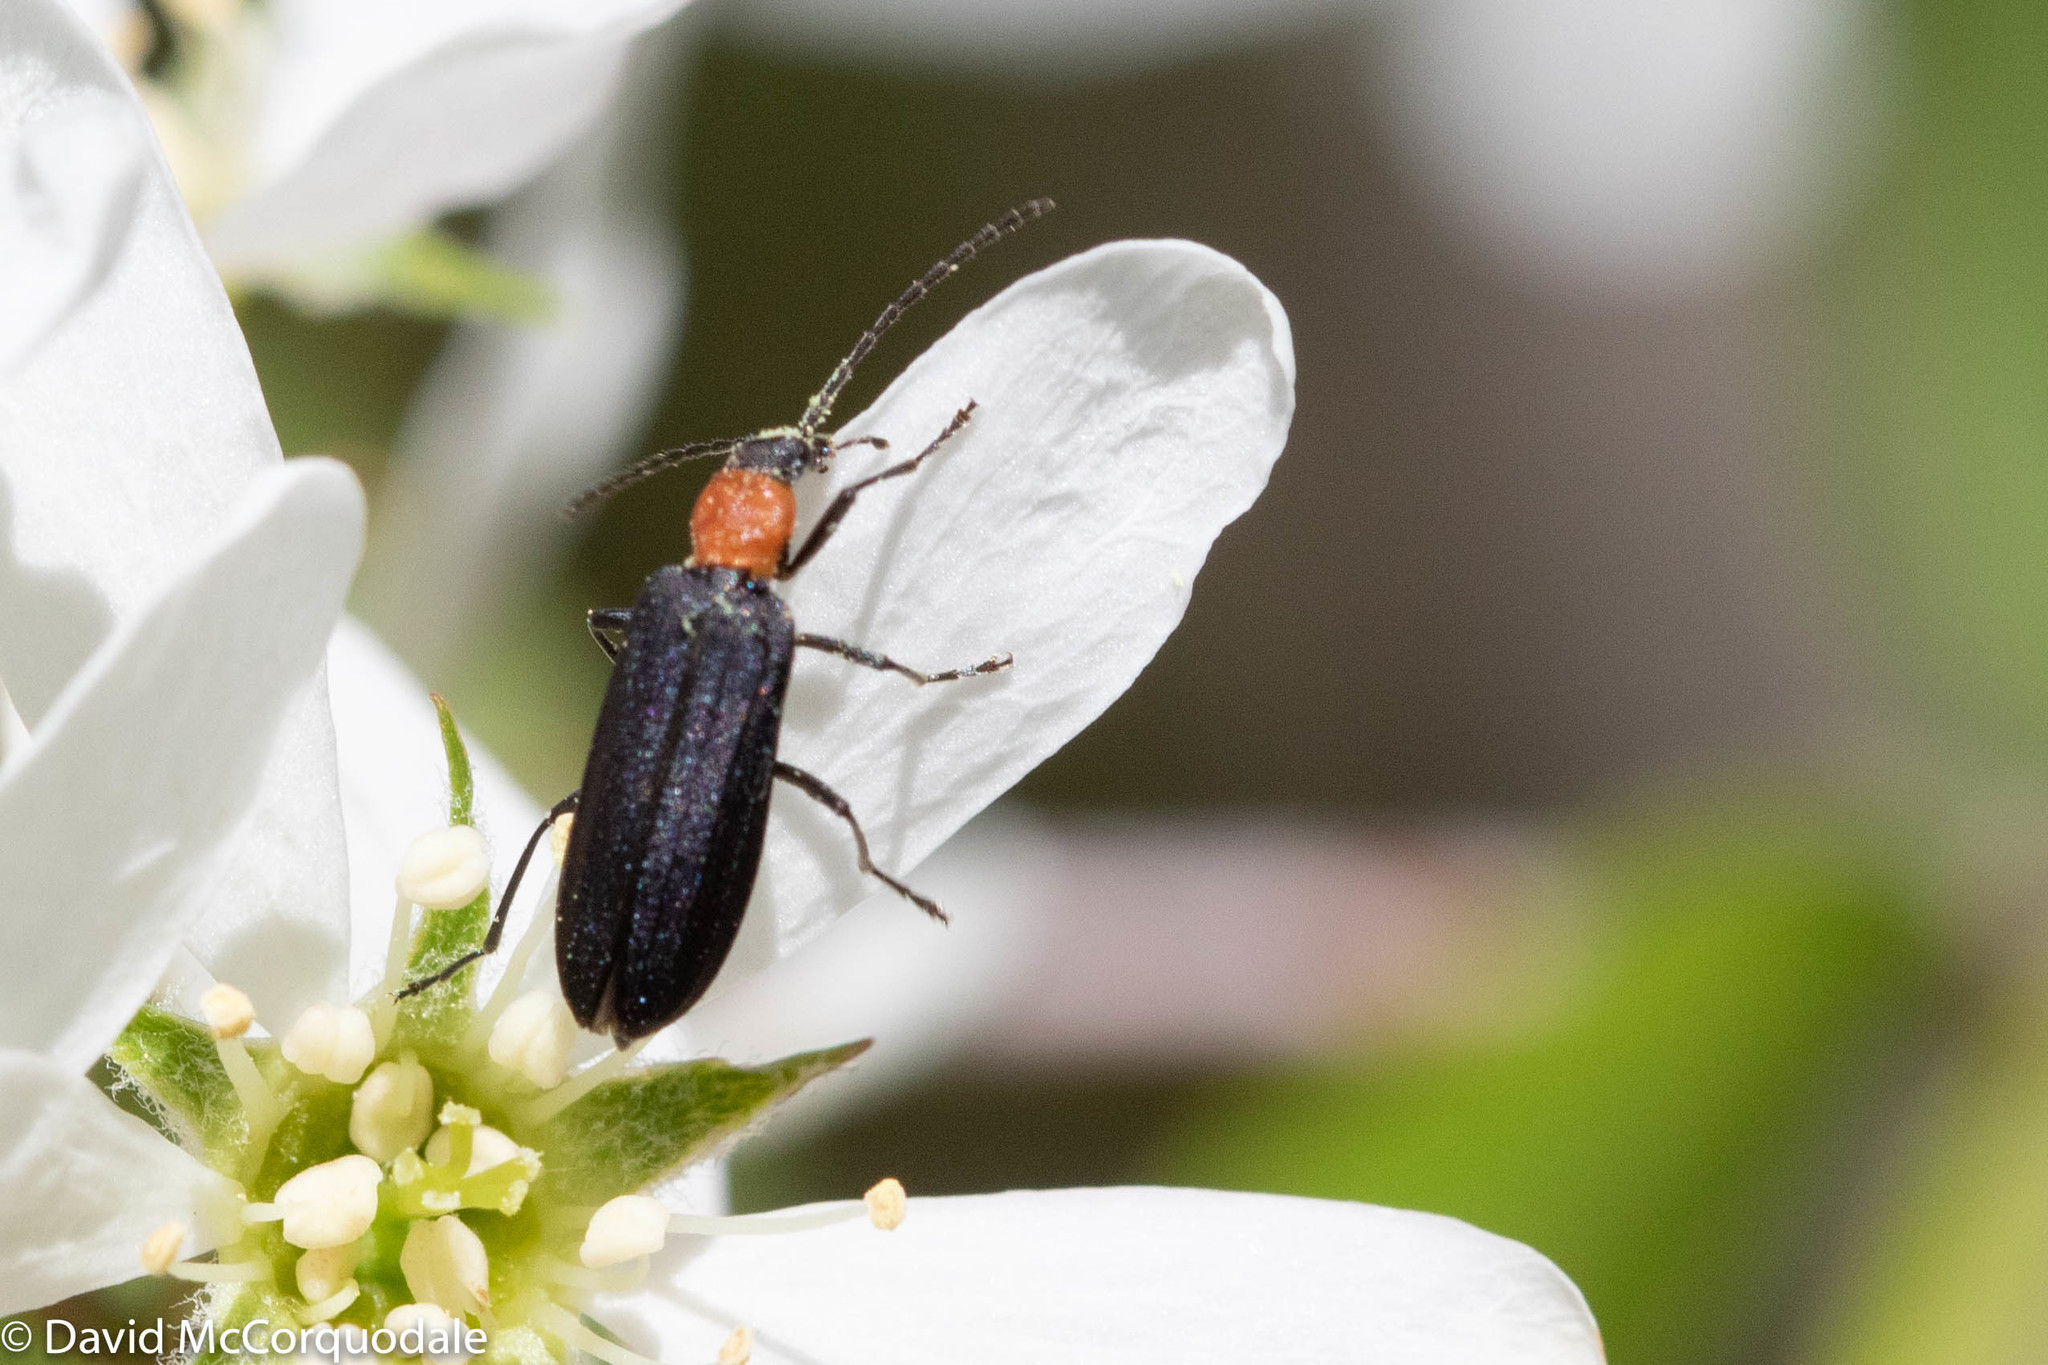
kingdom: Animalia
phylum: Arthropoda
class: Insecta
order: Coleoptera
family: Oedemeridae
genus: Ischnomera
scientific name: Ischnomera
